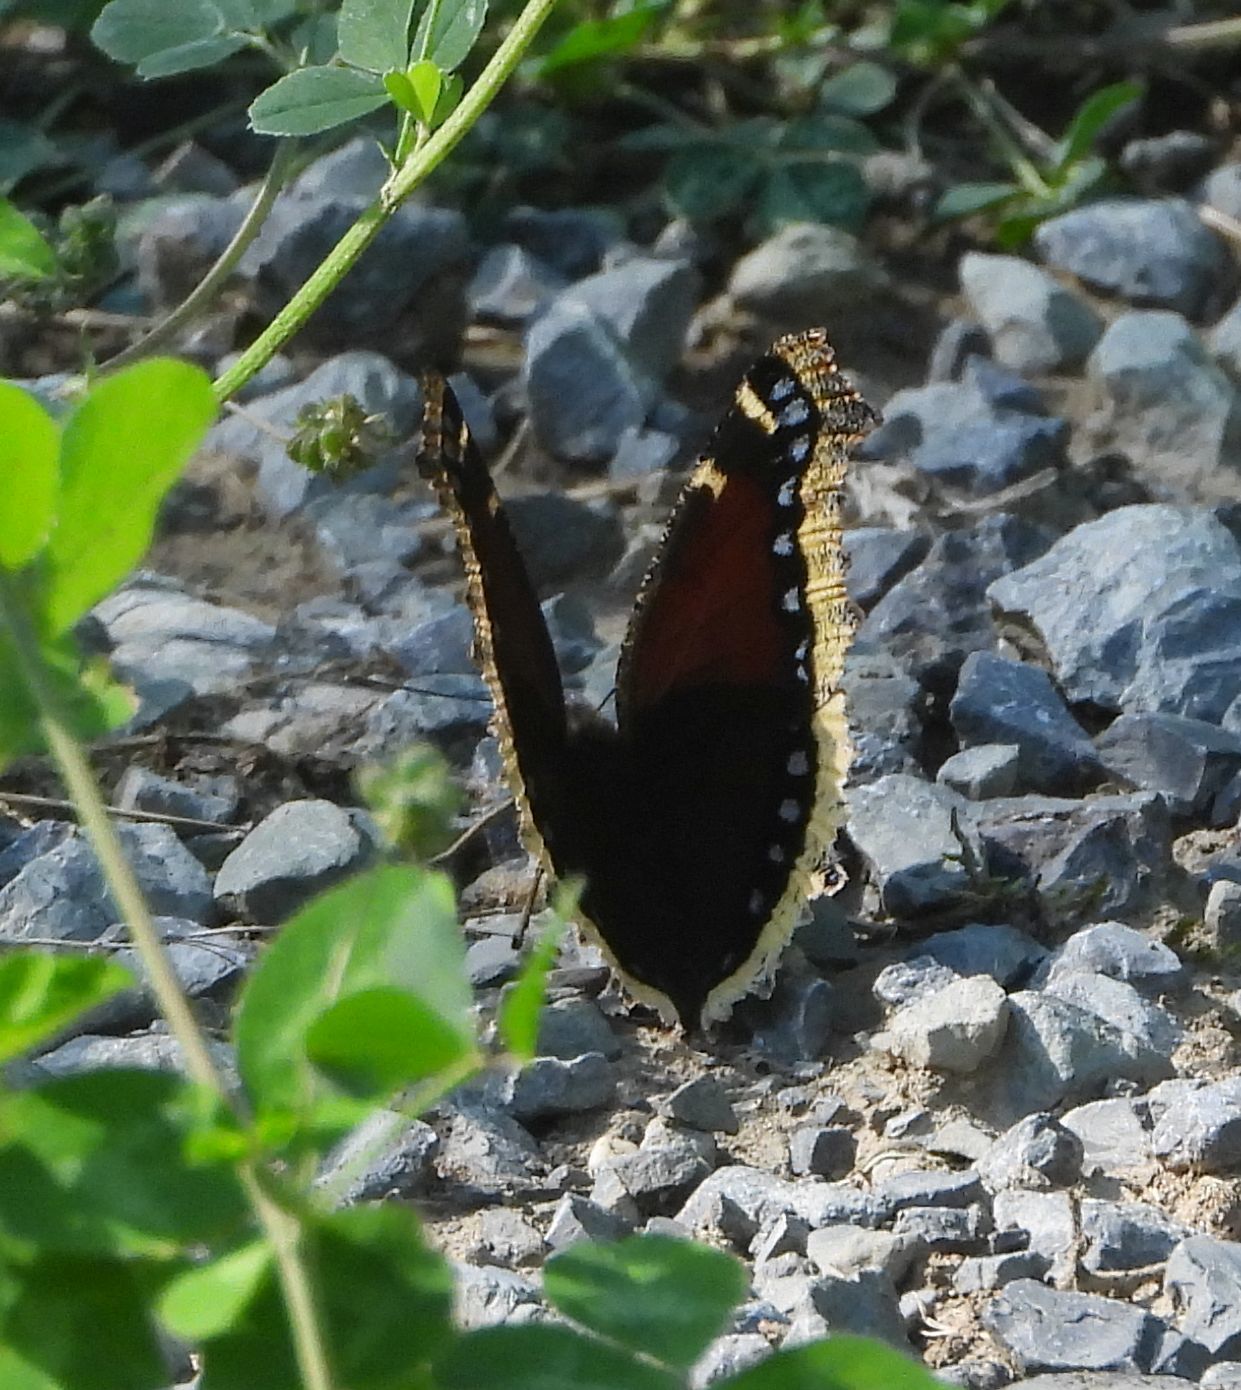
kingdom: Animalia
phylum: Arthropoda
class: Insecta
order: Lepidoptera
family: Nymphalidae
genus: Nymphalis
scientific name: Nymphalis antiopa
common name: Camberwell beauty
